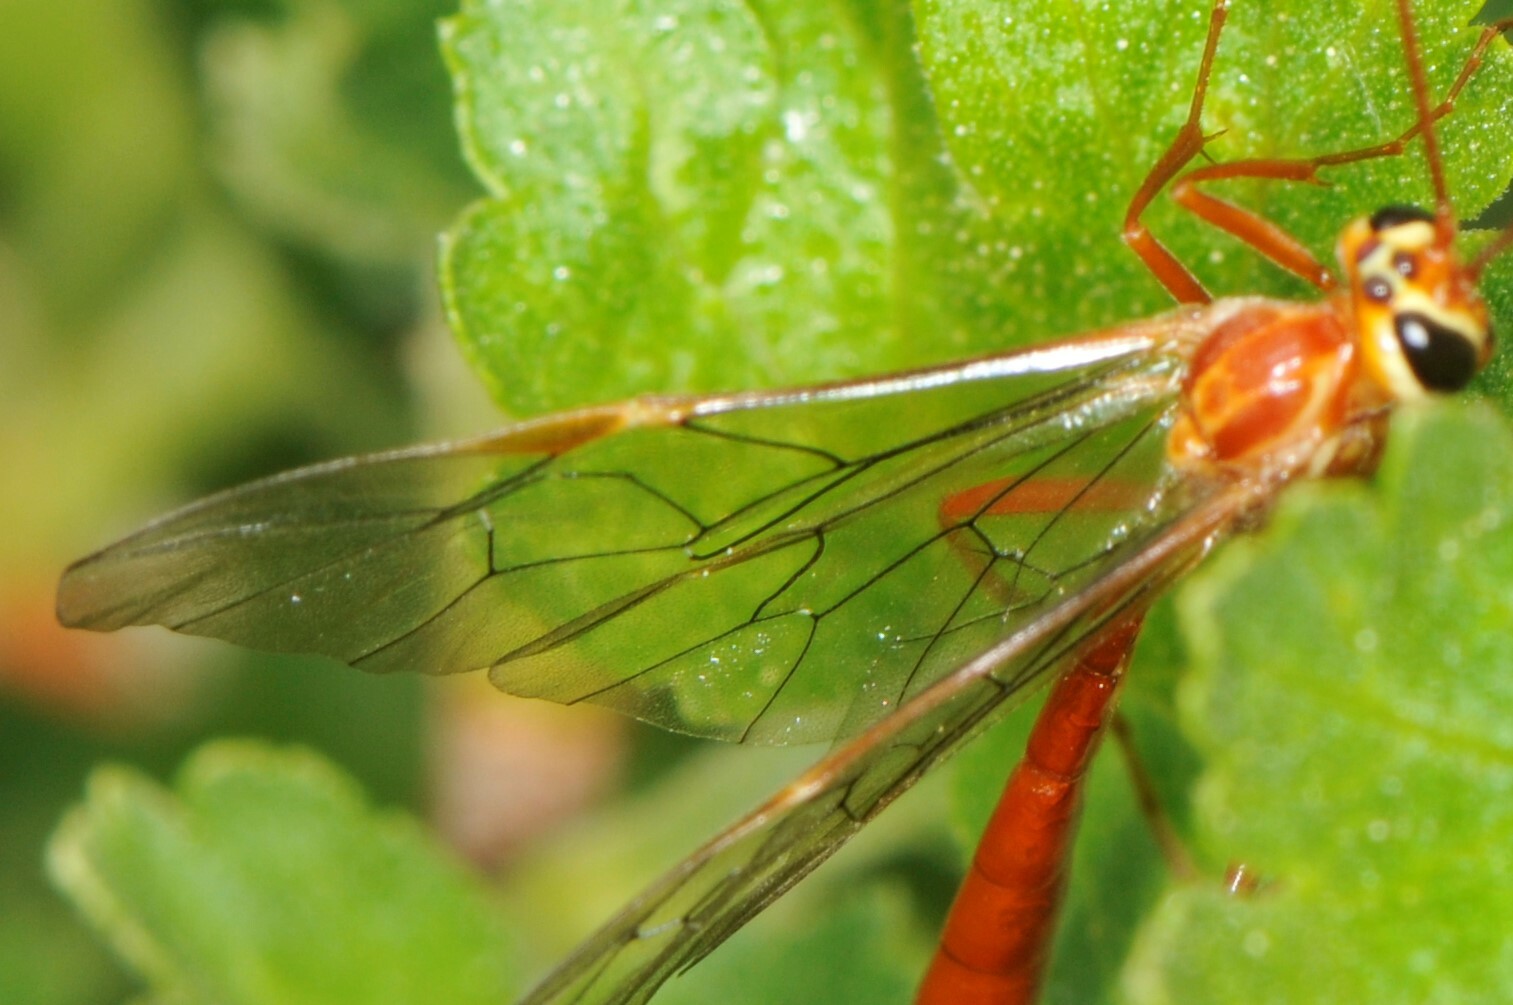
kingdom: Animalia
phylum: Arthropoda
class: Insecta
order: Hymenoptera
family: Ichneumonidae
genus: Ophion
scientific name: Ophion
